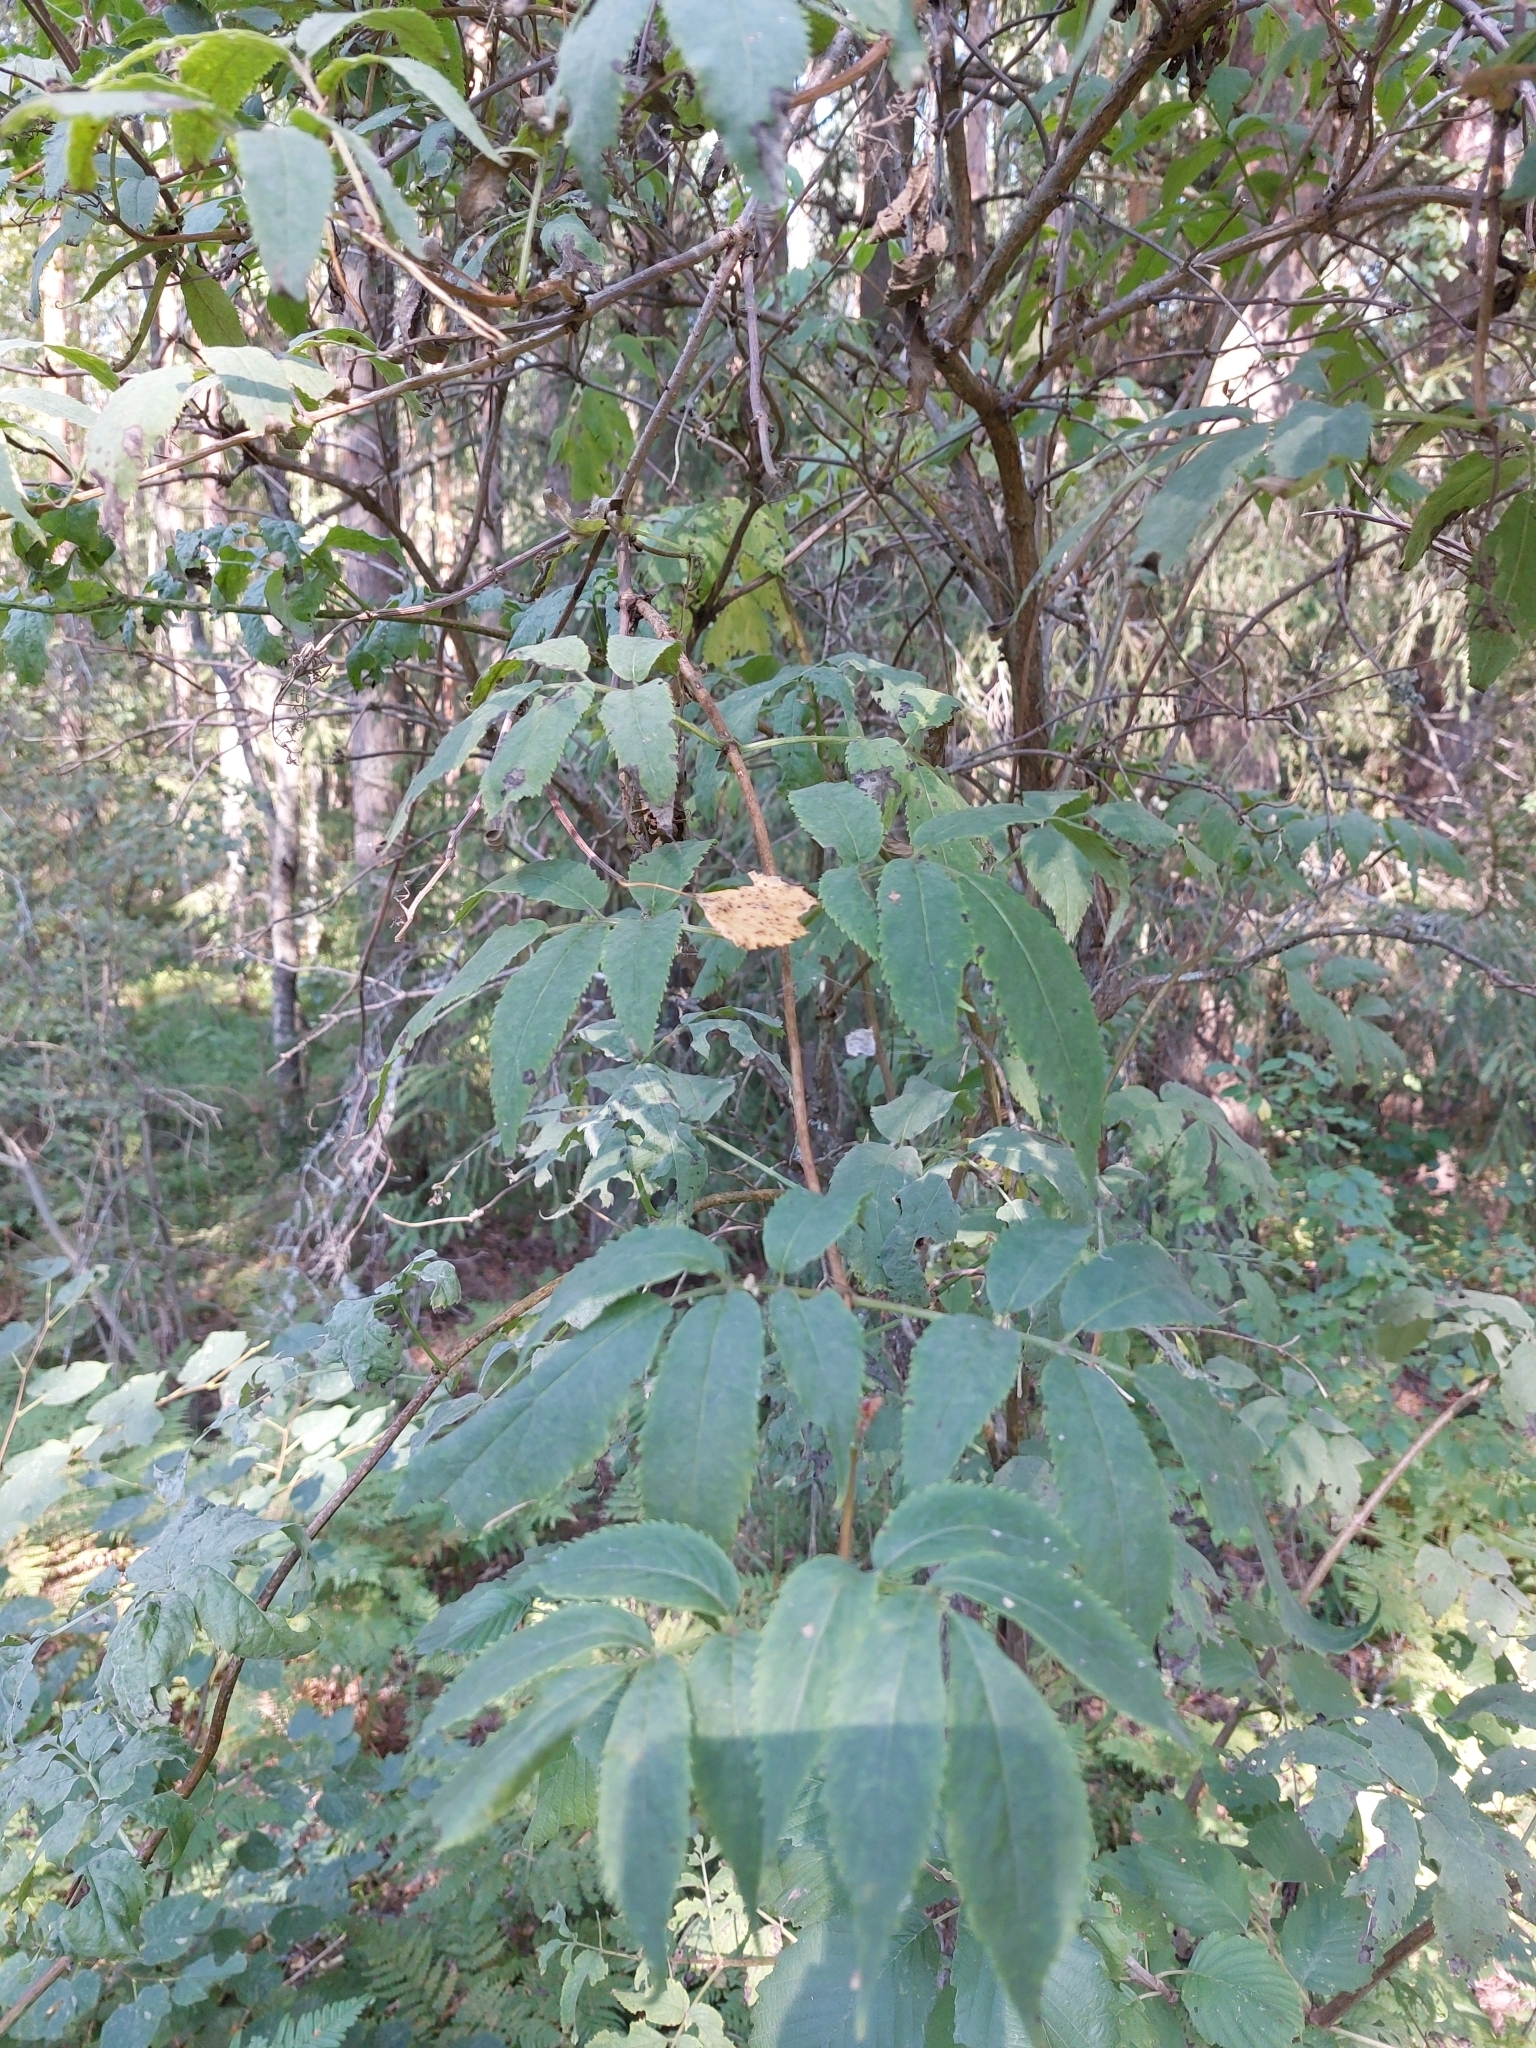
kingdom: Plantae
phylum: Tracheophyta
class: Magnoliopsida
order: Dipsacales
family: Viburnaceae
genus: Sambucus
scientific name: Sambucus racemosa
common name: Red-berried elder
